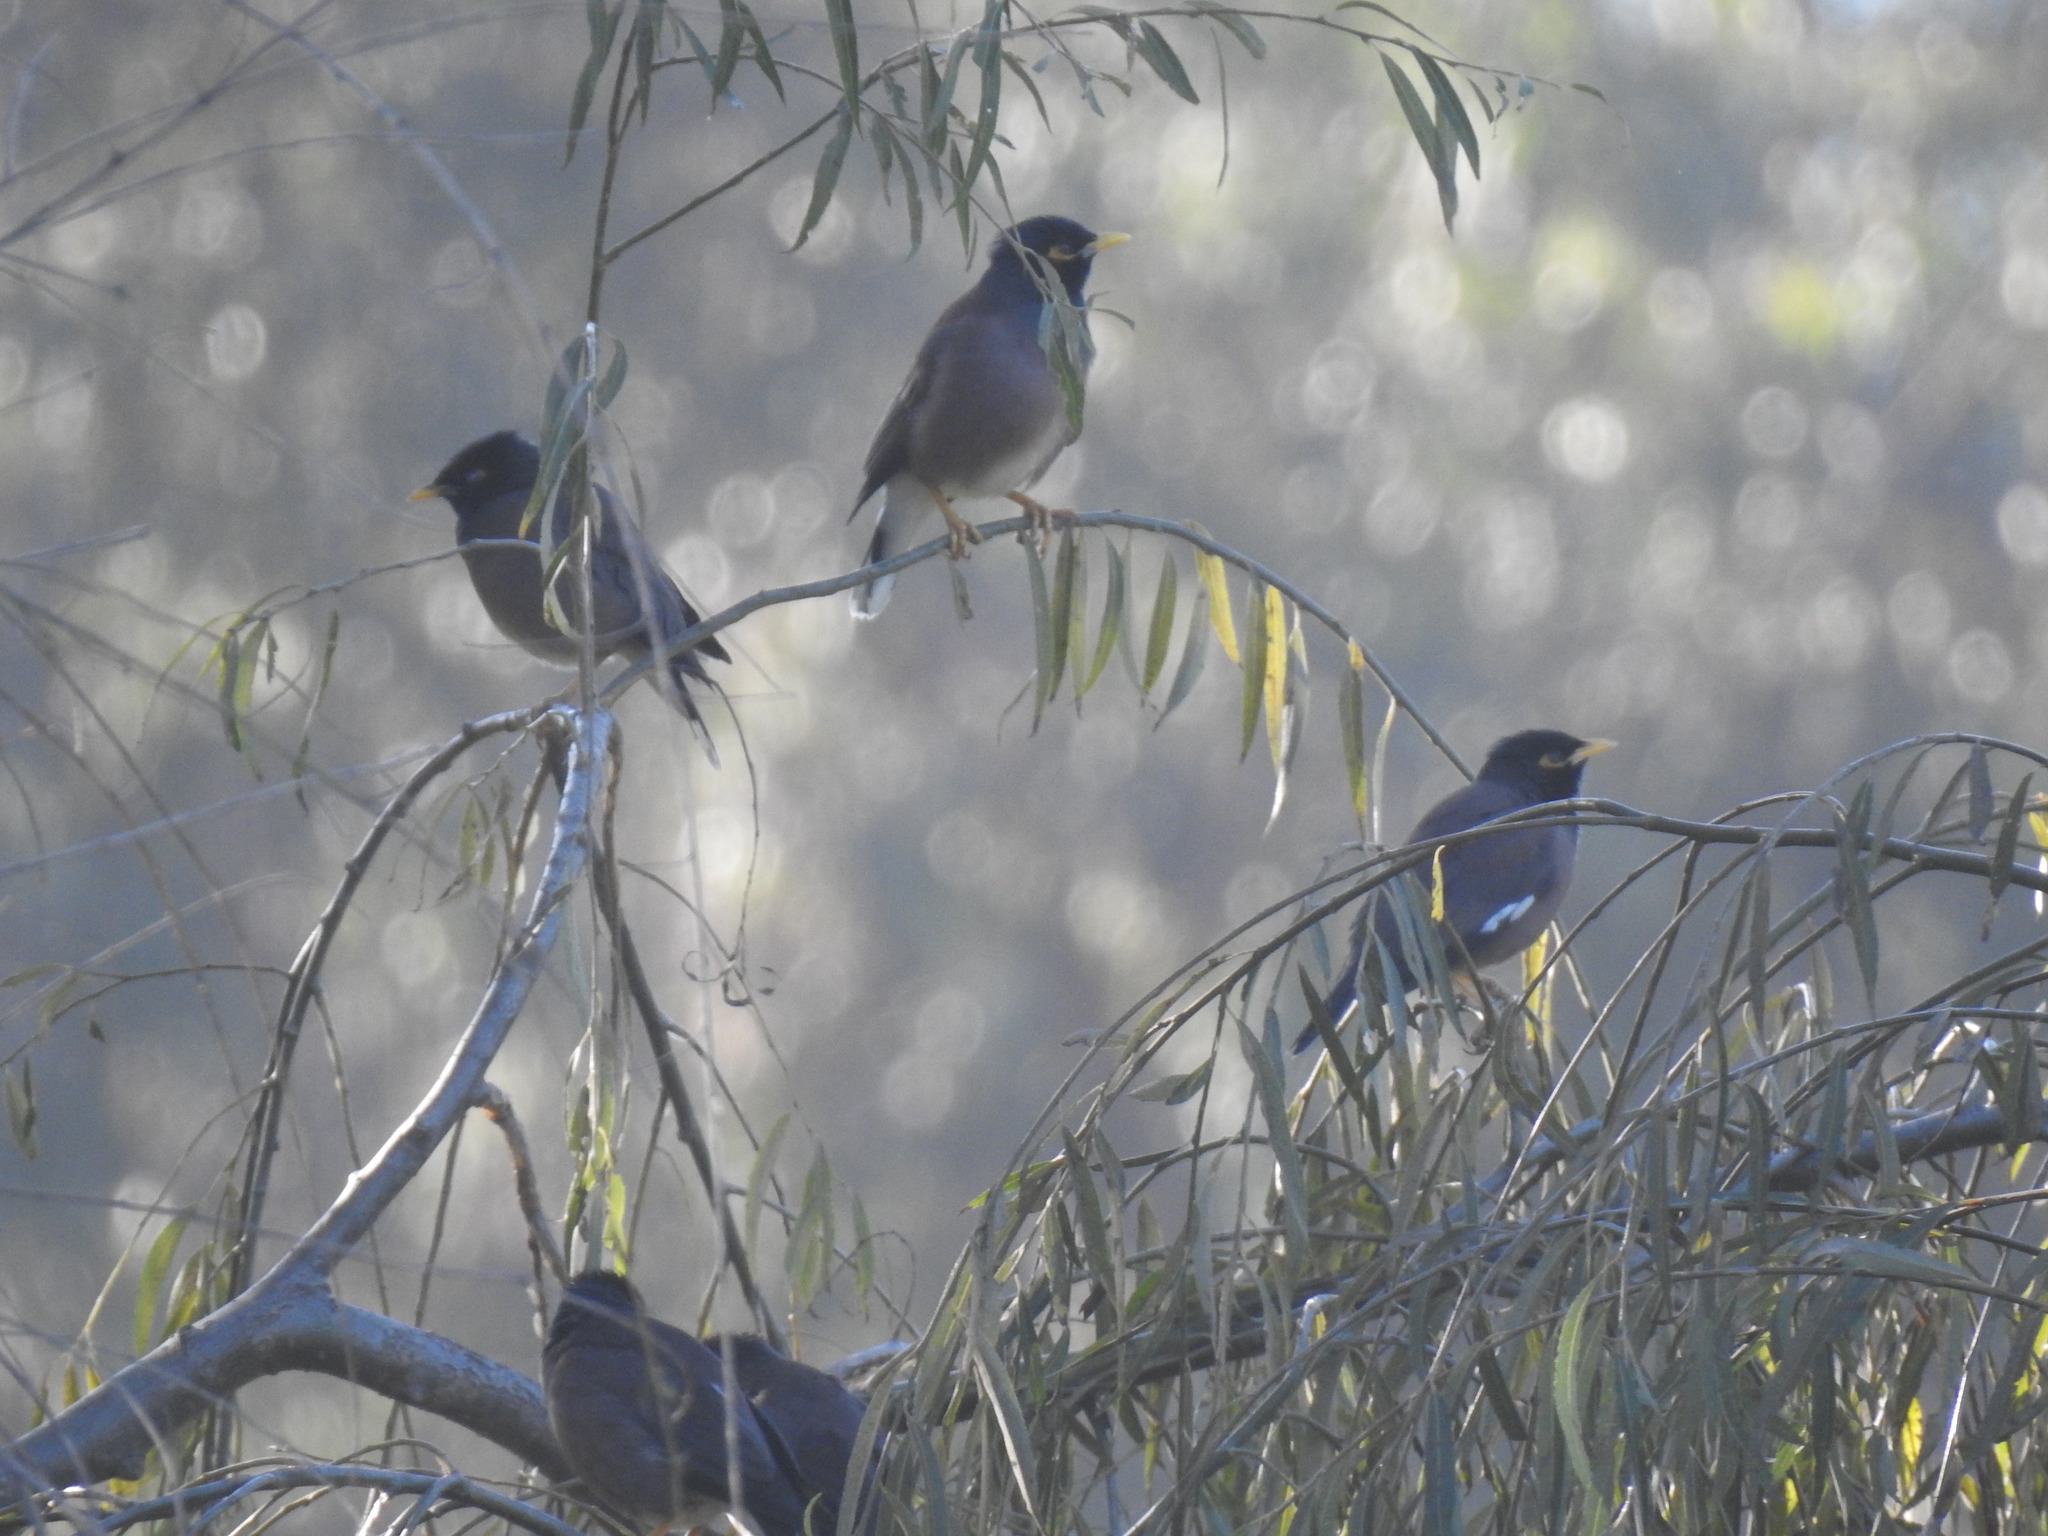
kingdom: Animalia
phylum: Chordata
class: Aves
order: Passeriformes
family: Sturnidae
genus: Acridotheres
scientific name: Acridotheres tristis
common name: Common myna
